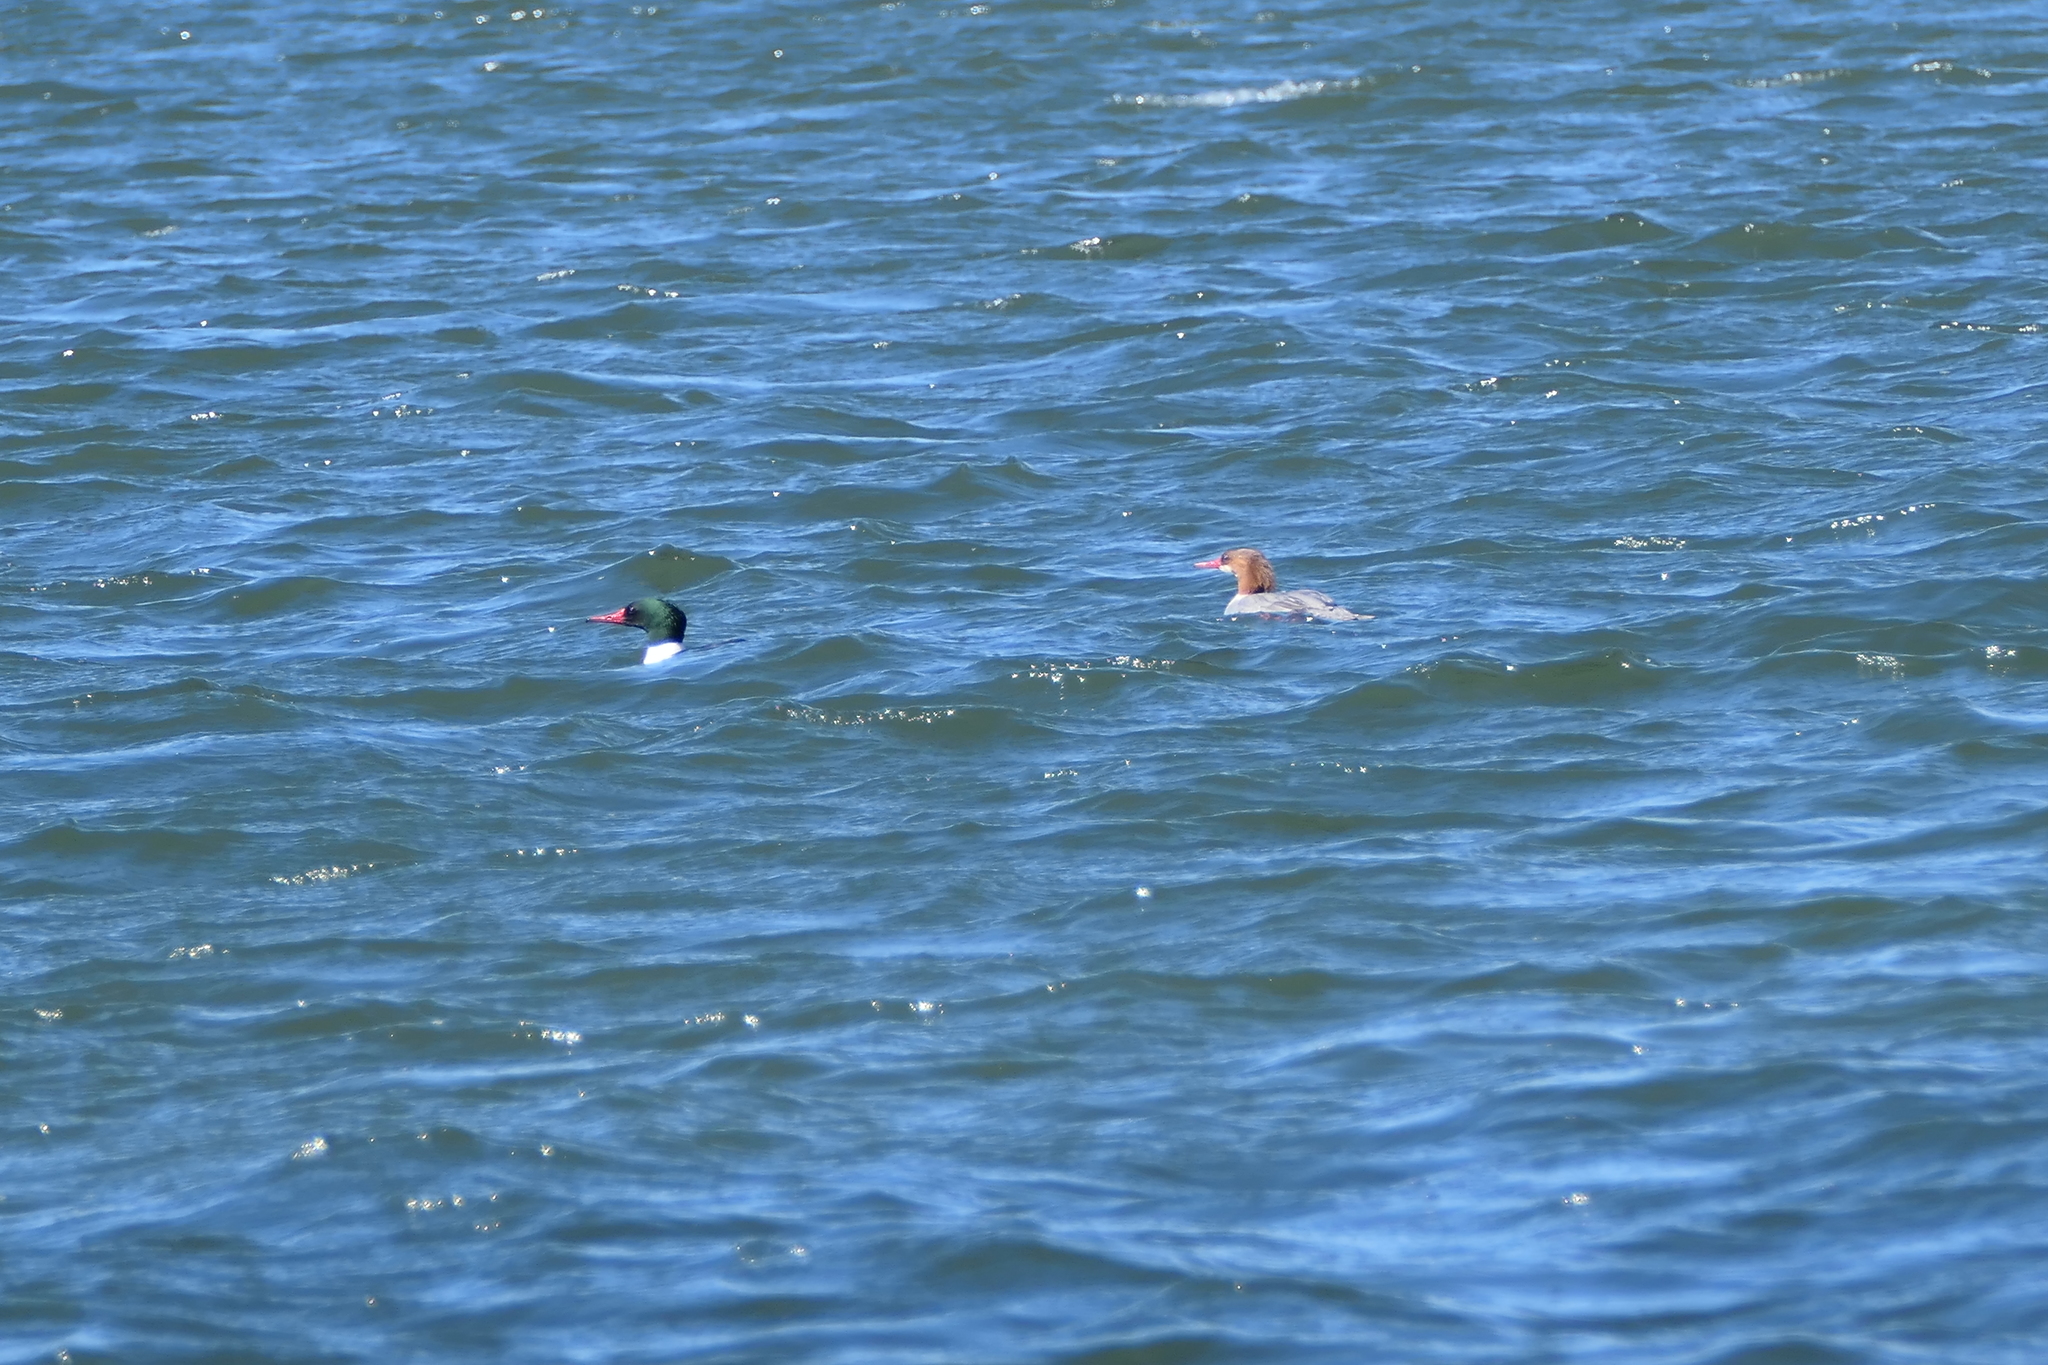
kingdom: Animalia
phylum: Chordata
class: Aves
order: Anseriformes
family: Anatidae
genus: Mergus
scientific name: Mergus merganser
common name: Common merganser
